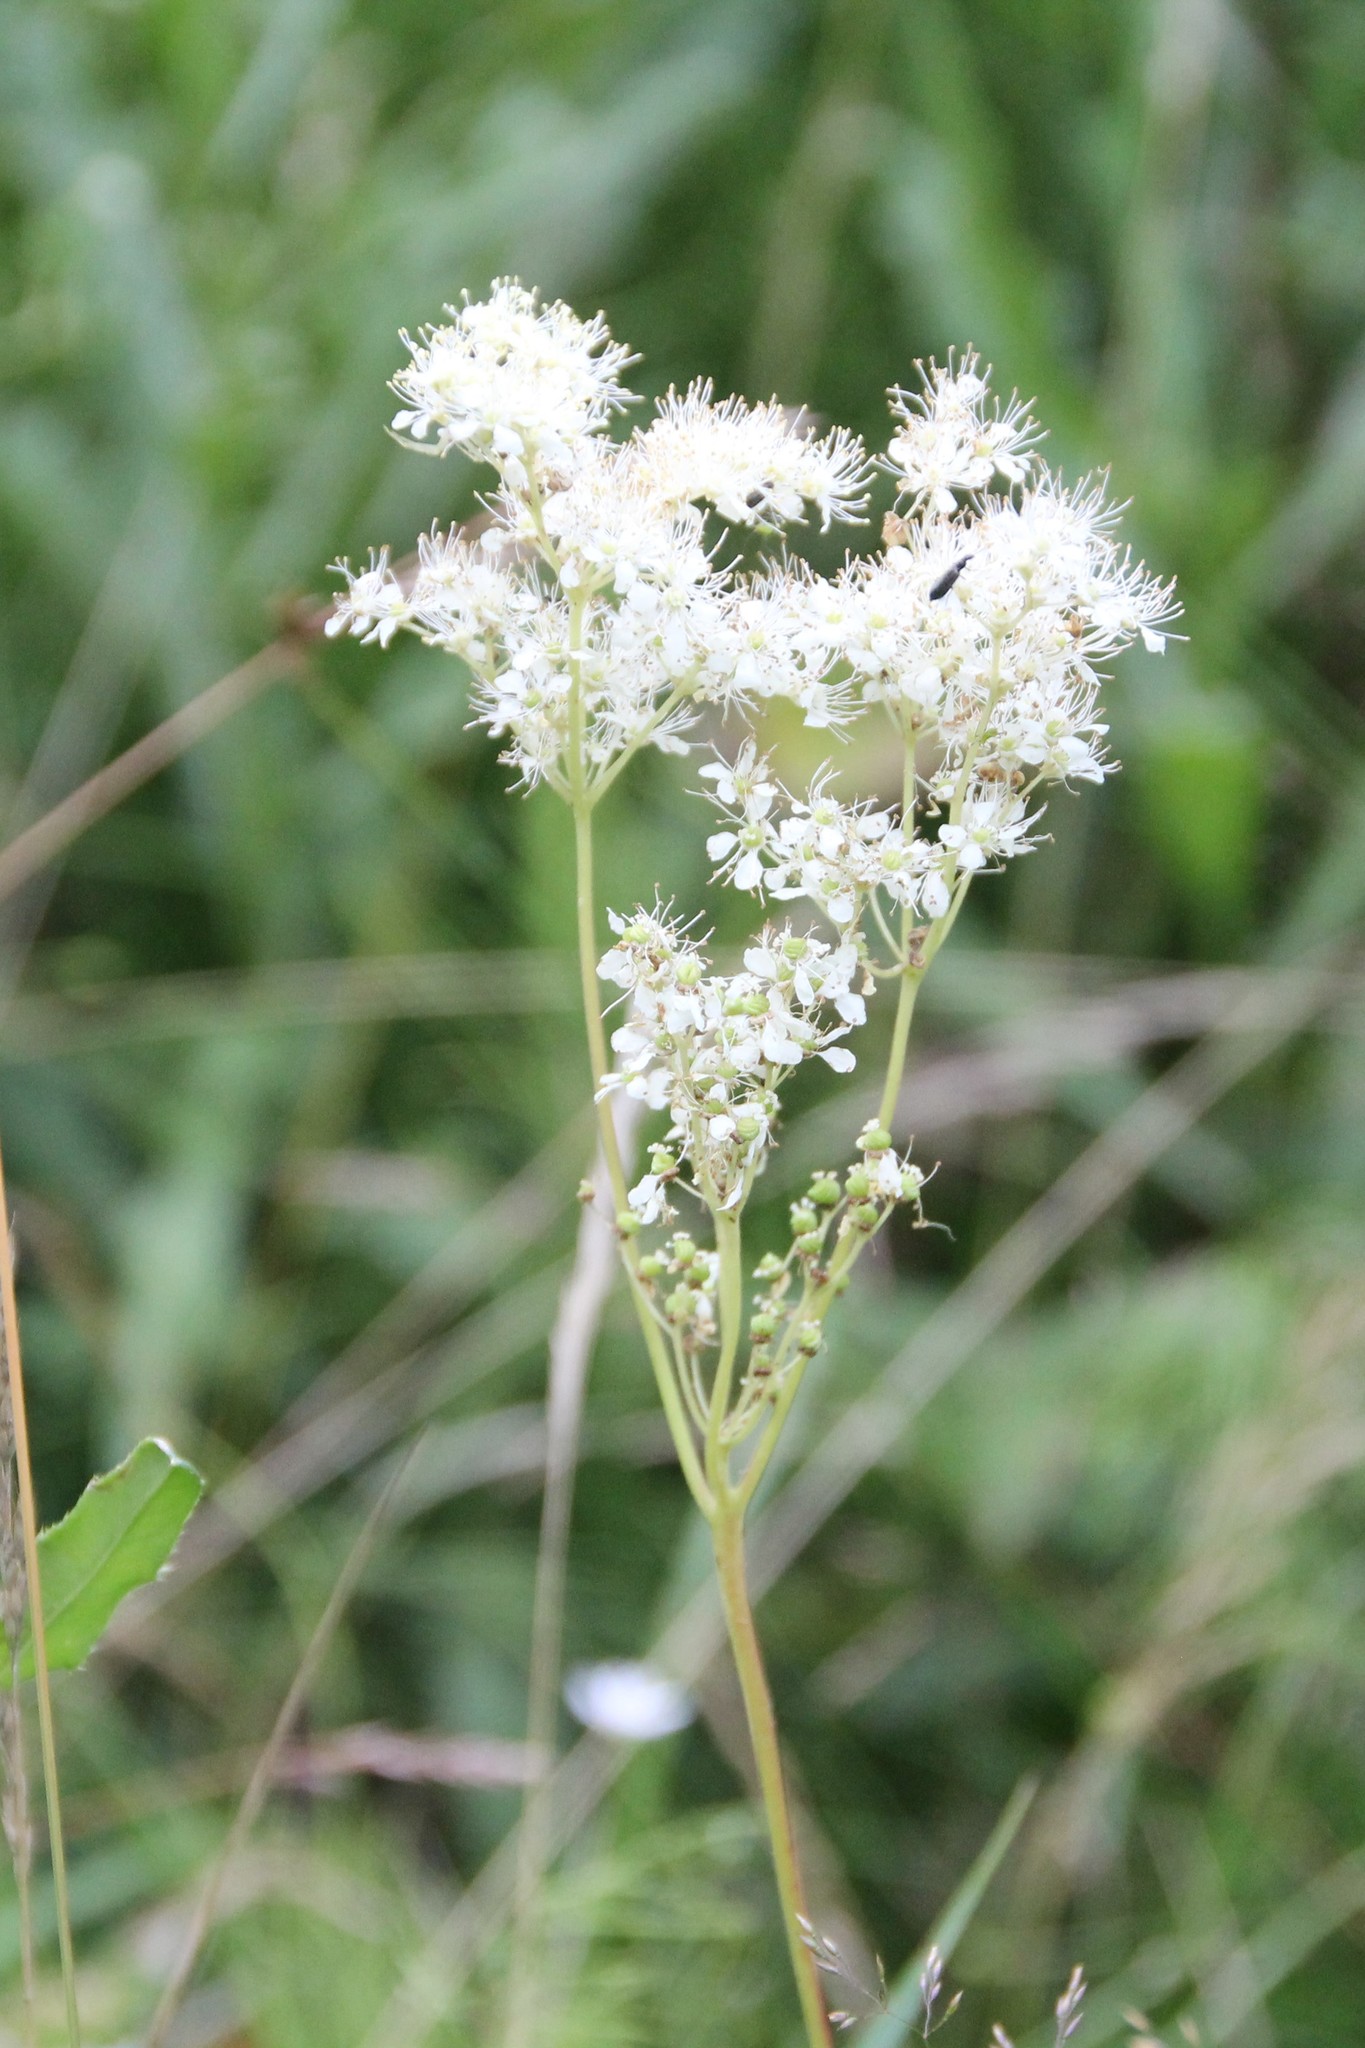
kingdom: Plantae
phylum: Tracheophyta
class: Magnoliopsida
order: Rosales
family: Rosaceae
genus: Filipendula
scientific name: Filipendula ulmaria
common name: Meadowsweet
